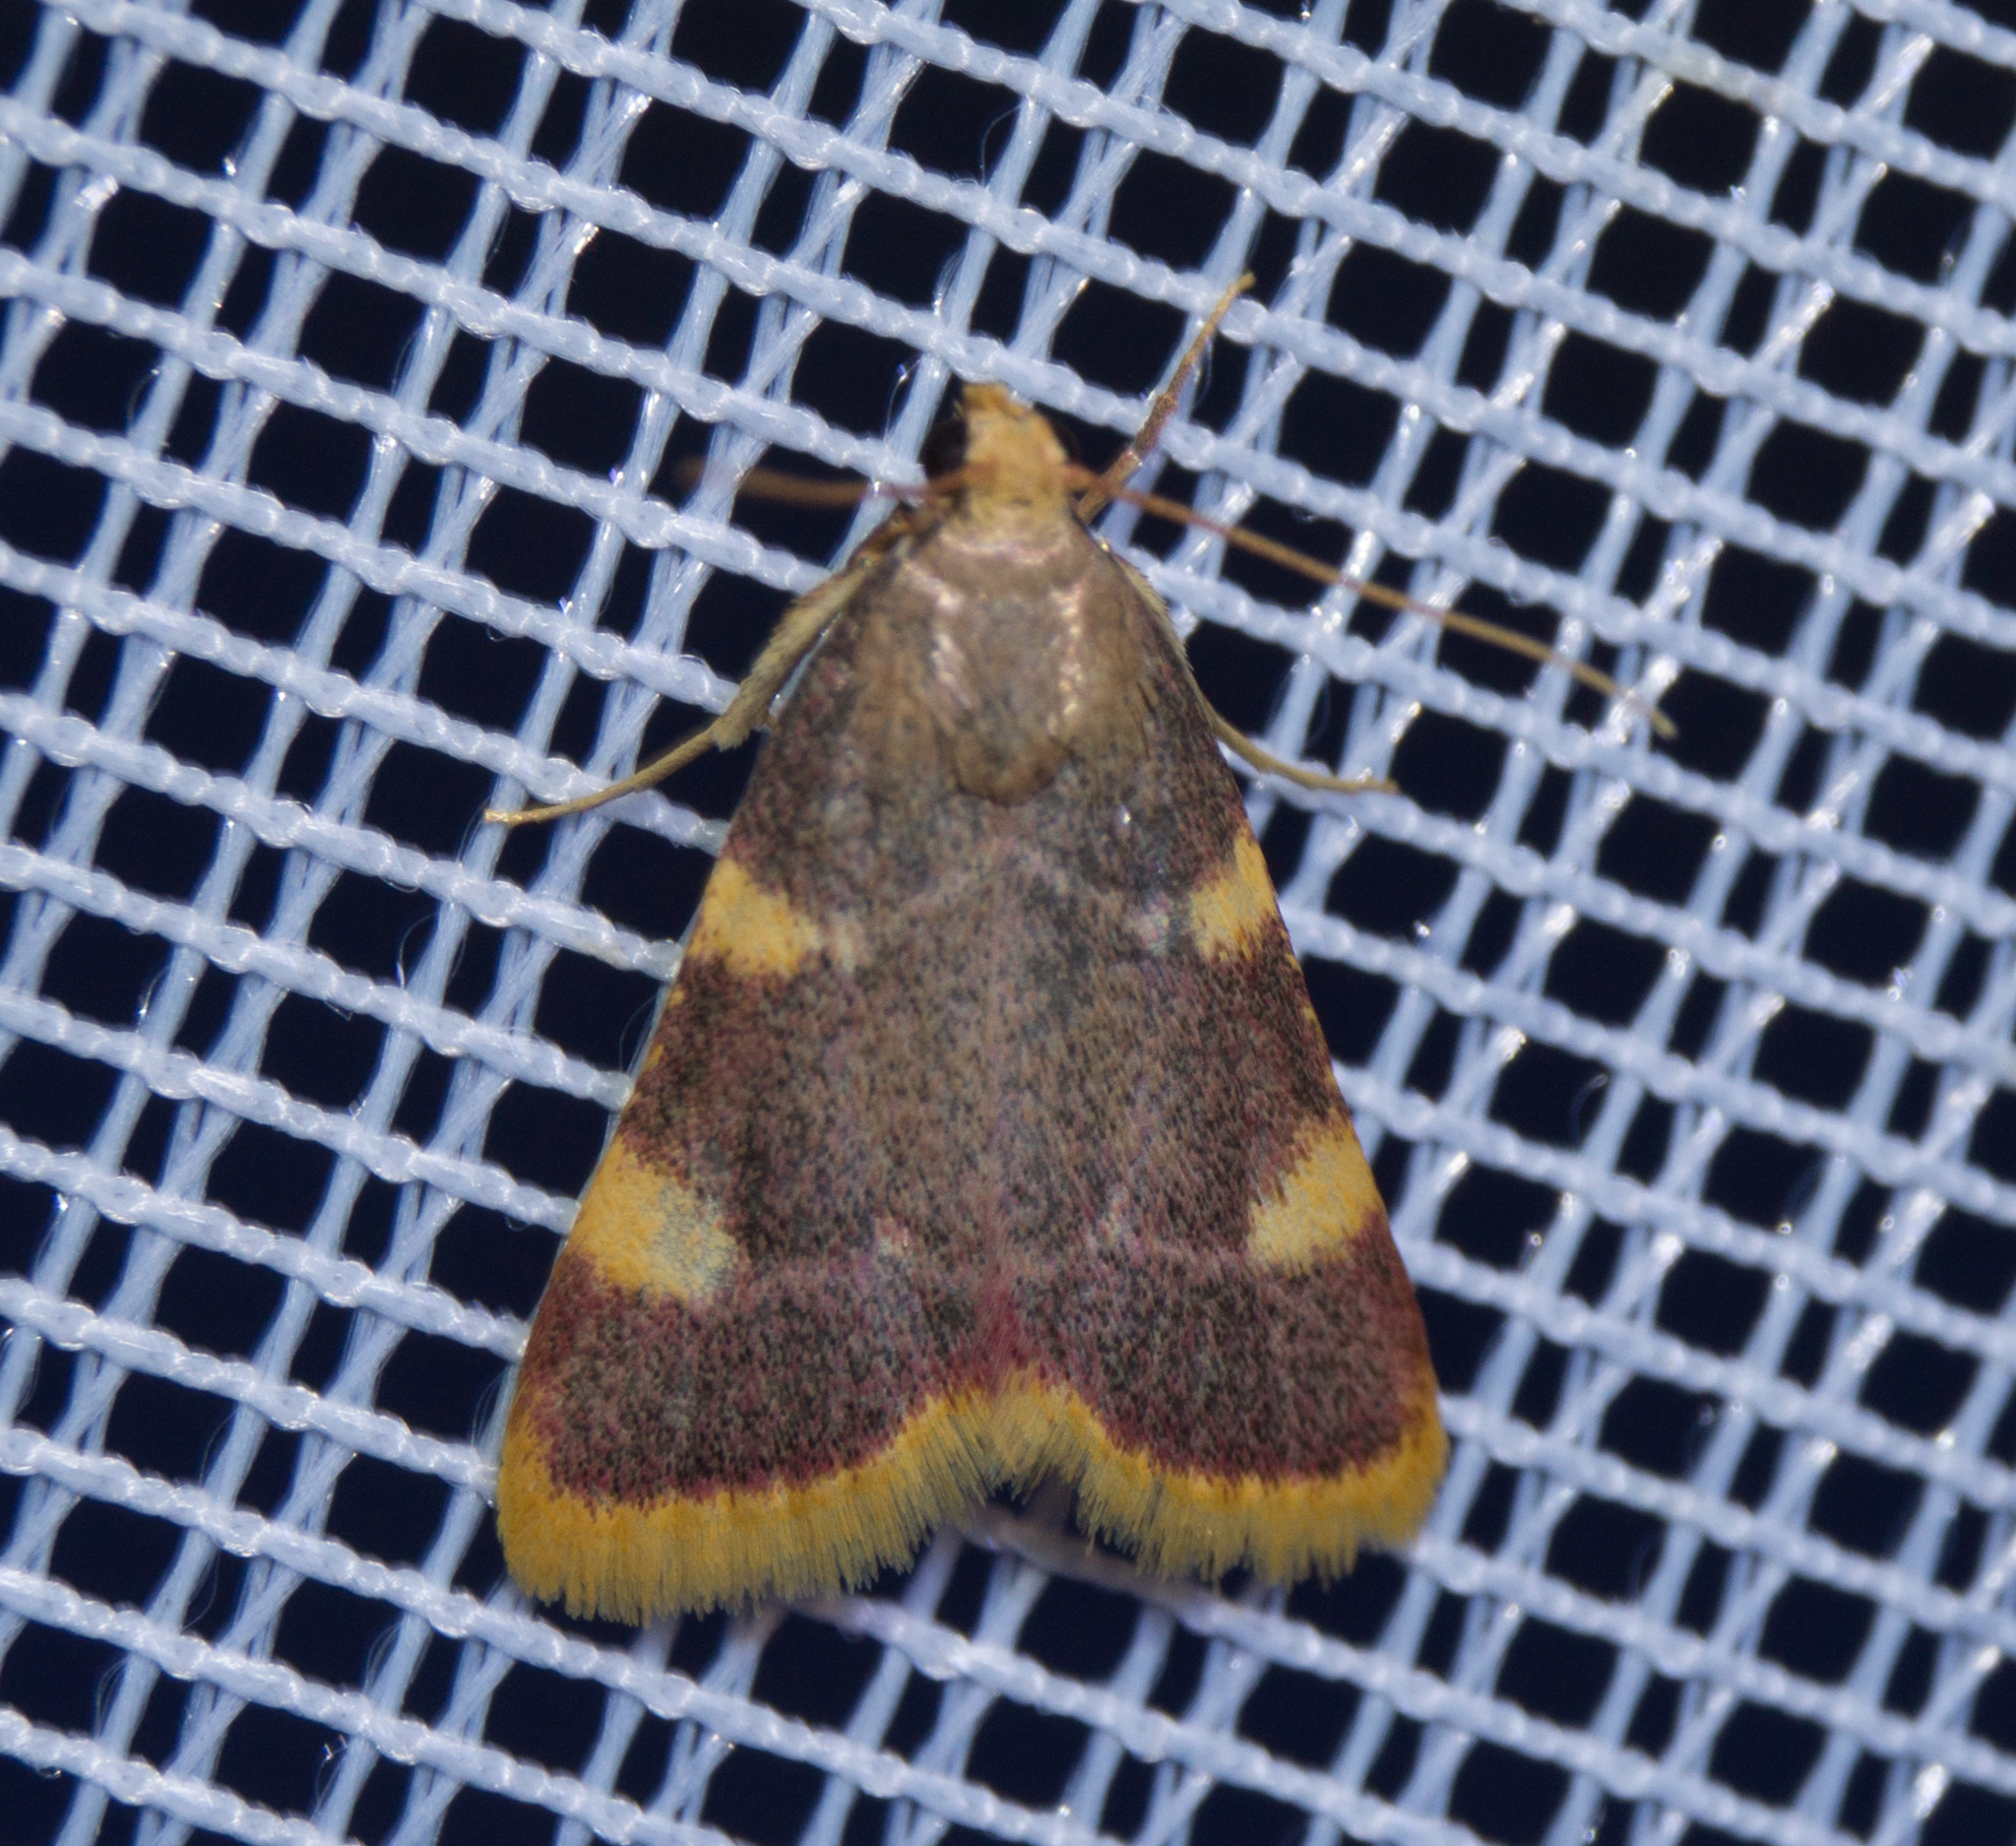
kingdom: Animalia
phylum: Arthropoda
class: Insecta
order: Lepidoptera
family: Pyralidae
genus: Hypsopygia
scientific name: Hypsopygia costalis
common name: Gold triangle
